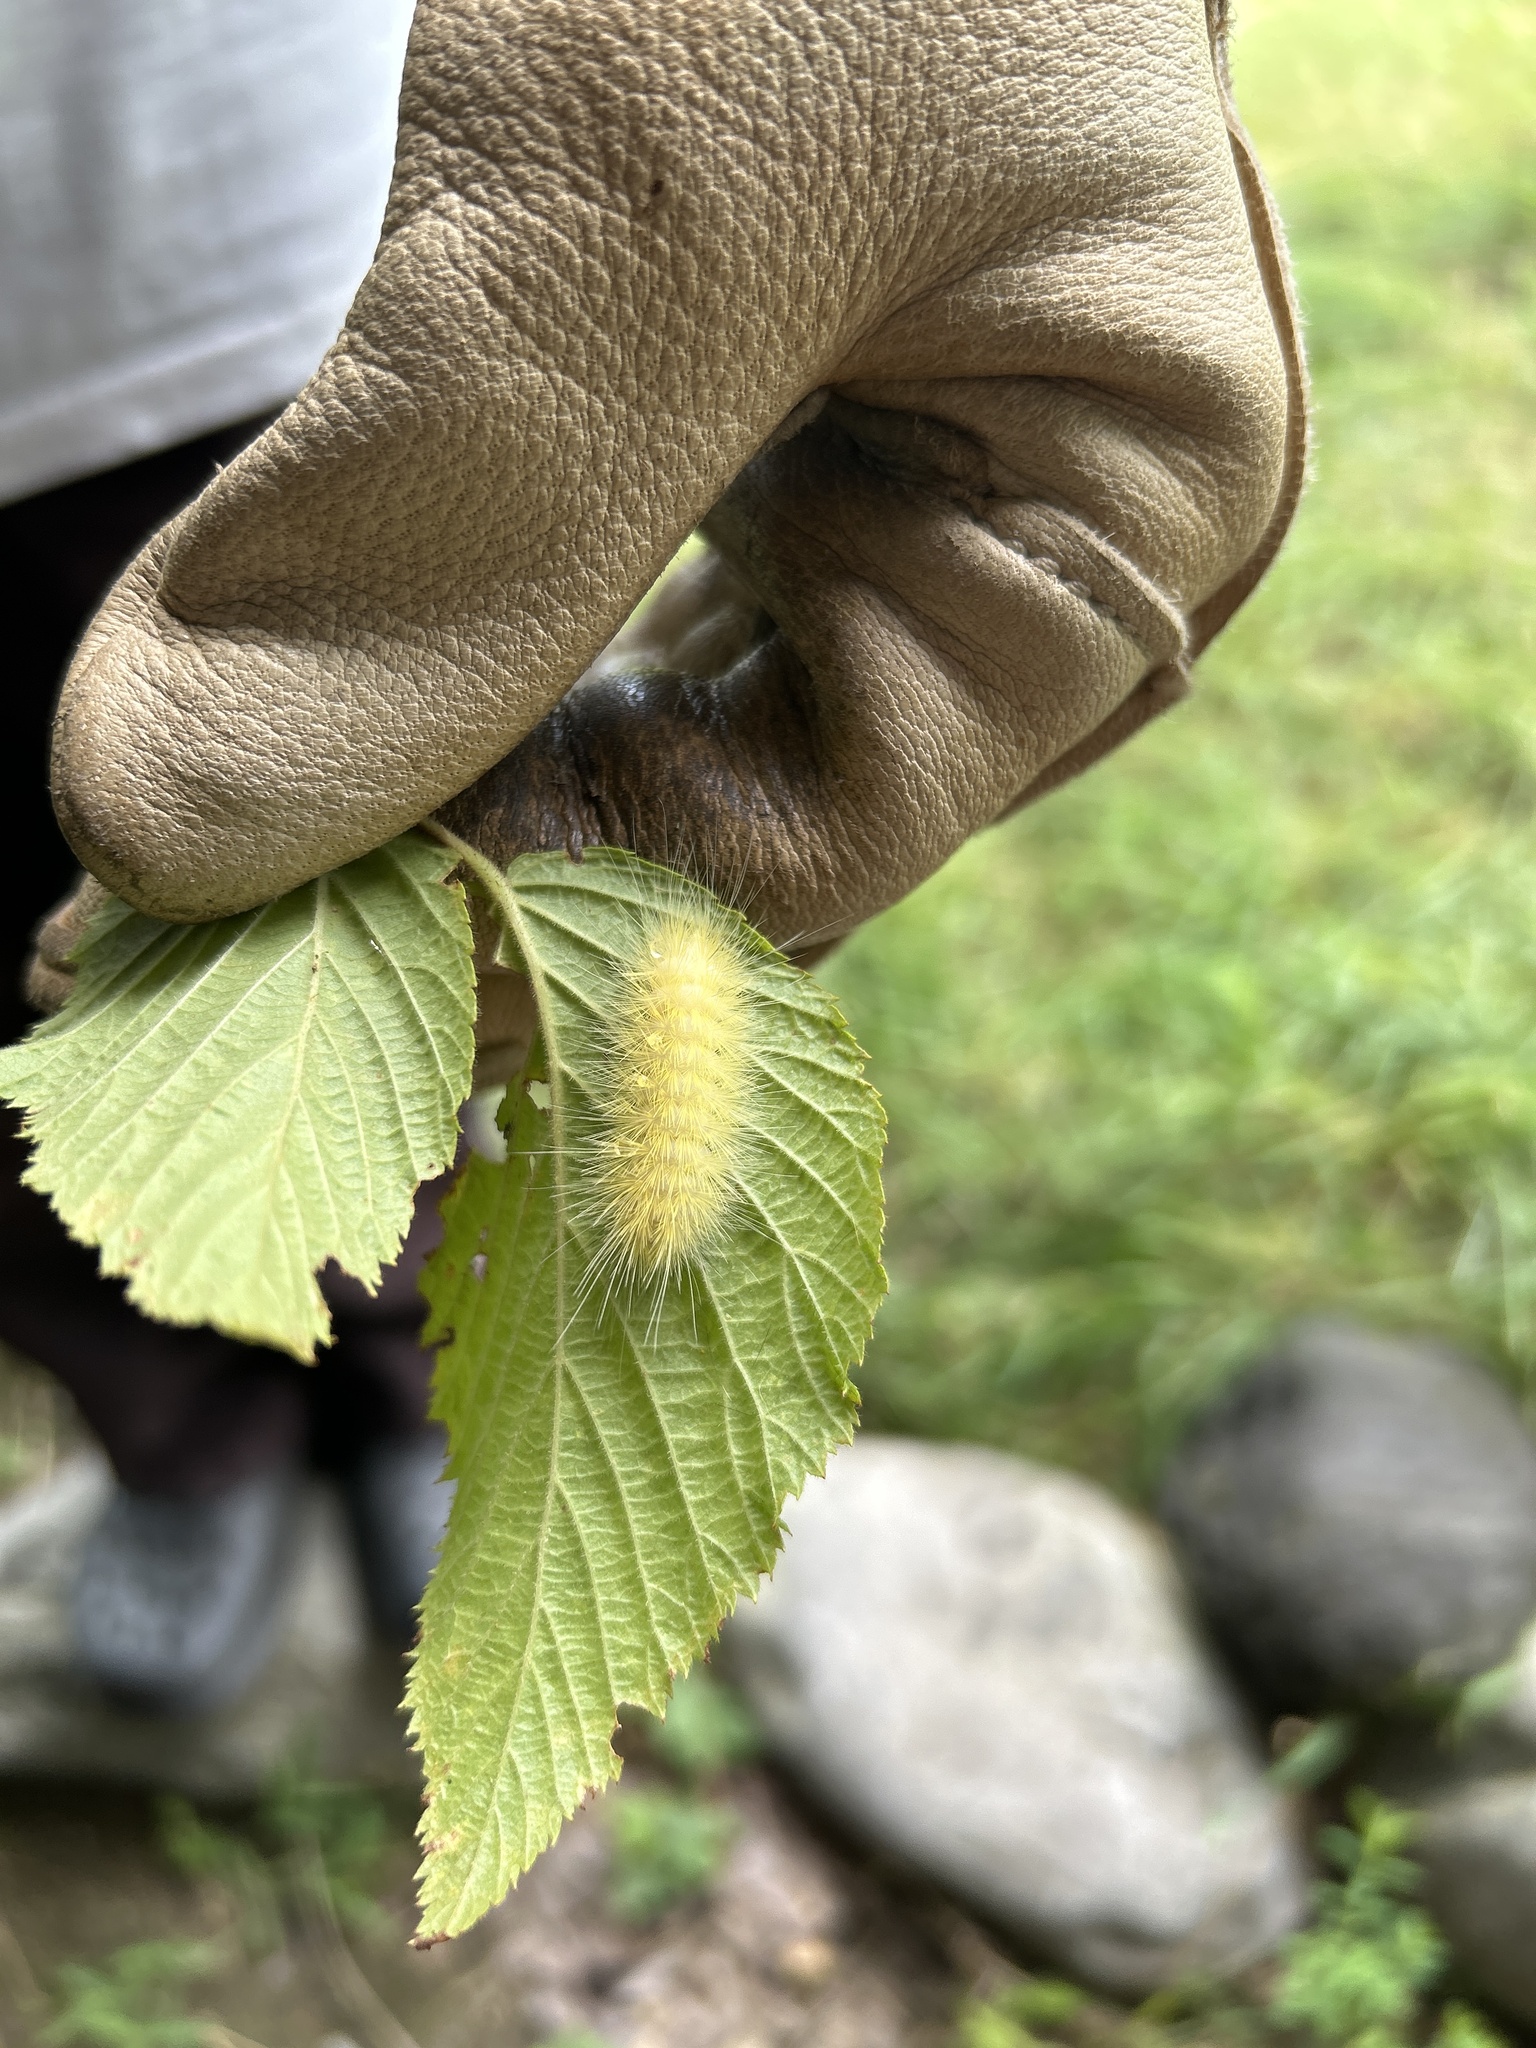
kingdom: Animalia
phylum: Arthropoda
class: Insecta
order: Lepidoptera
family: Erebidae
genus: Spilosoma
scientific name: Spilosoma virginica
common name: Virginia tiger moth
